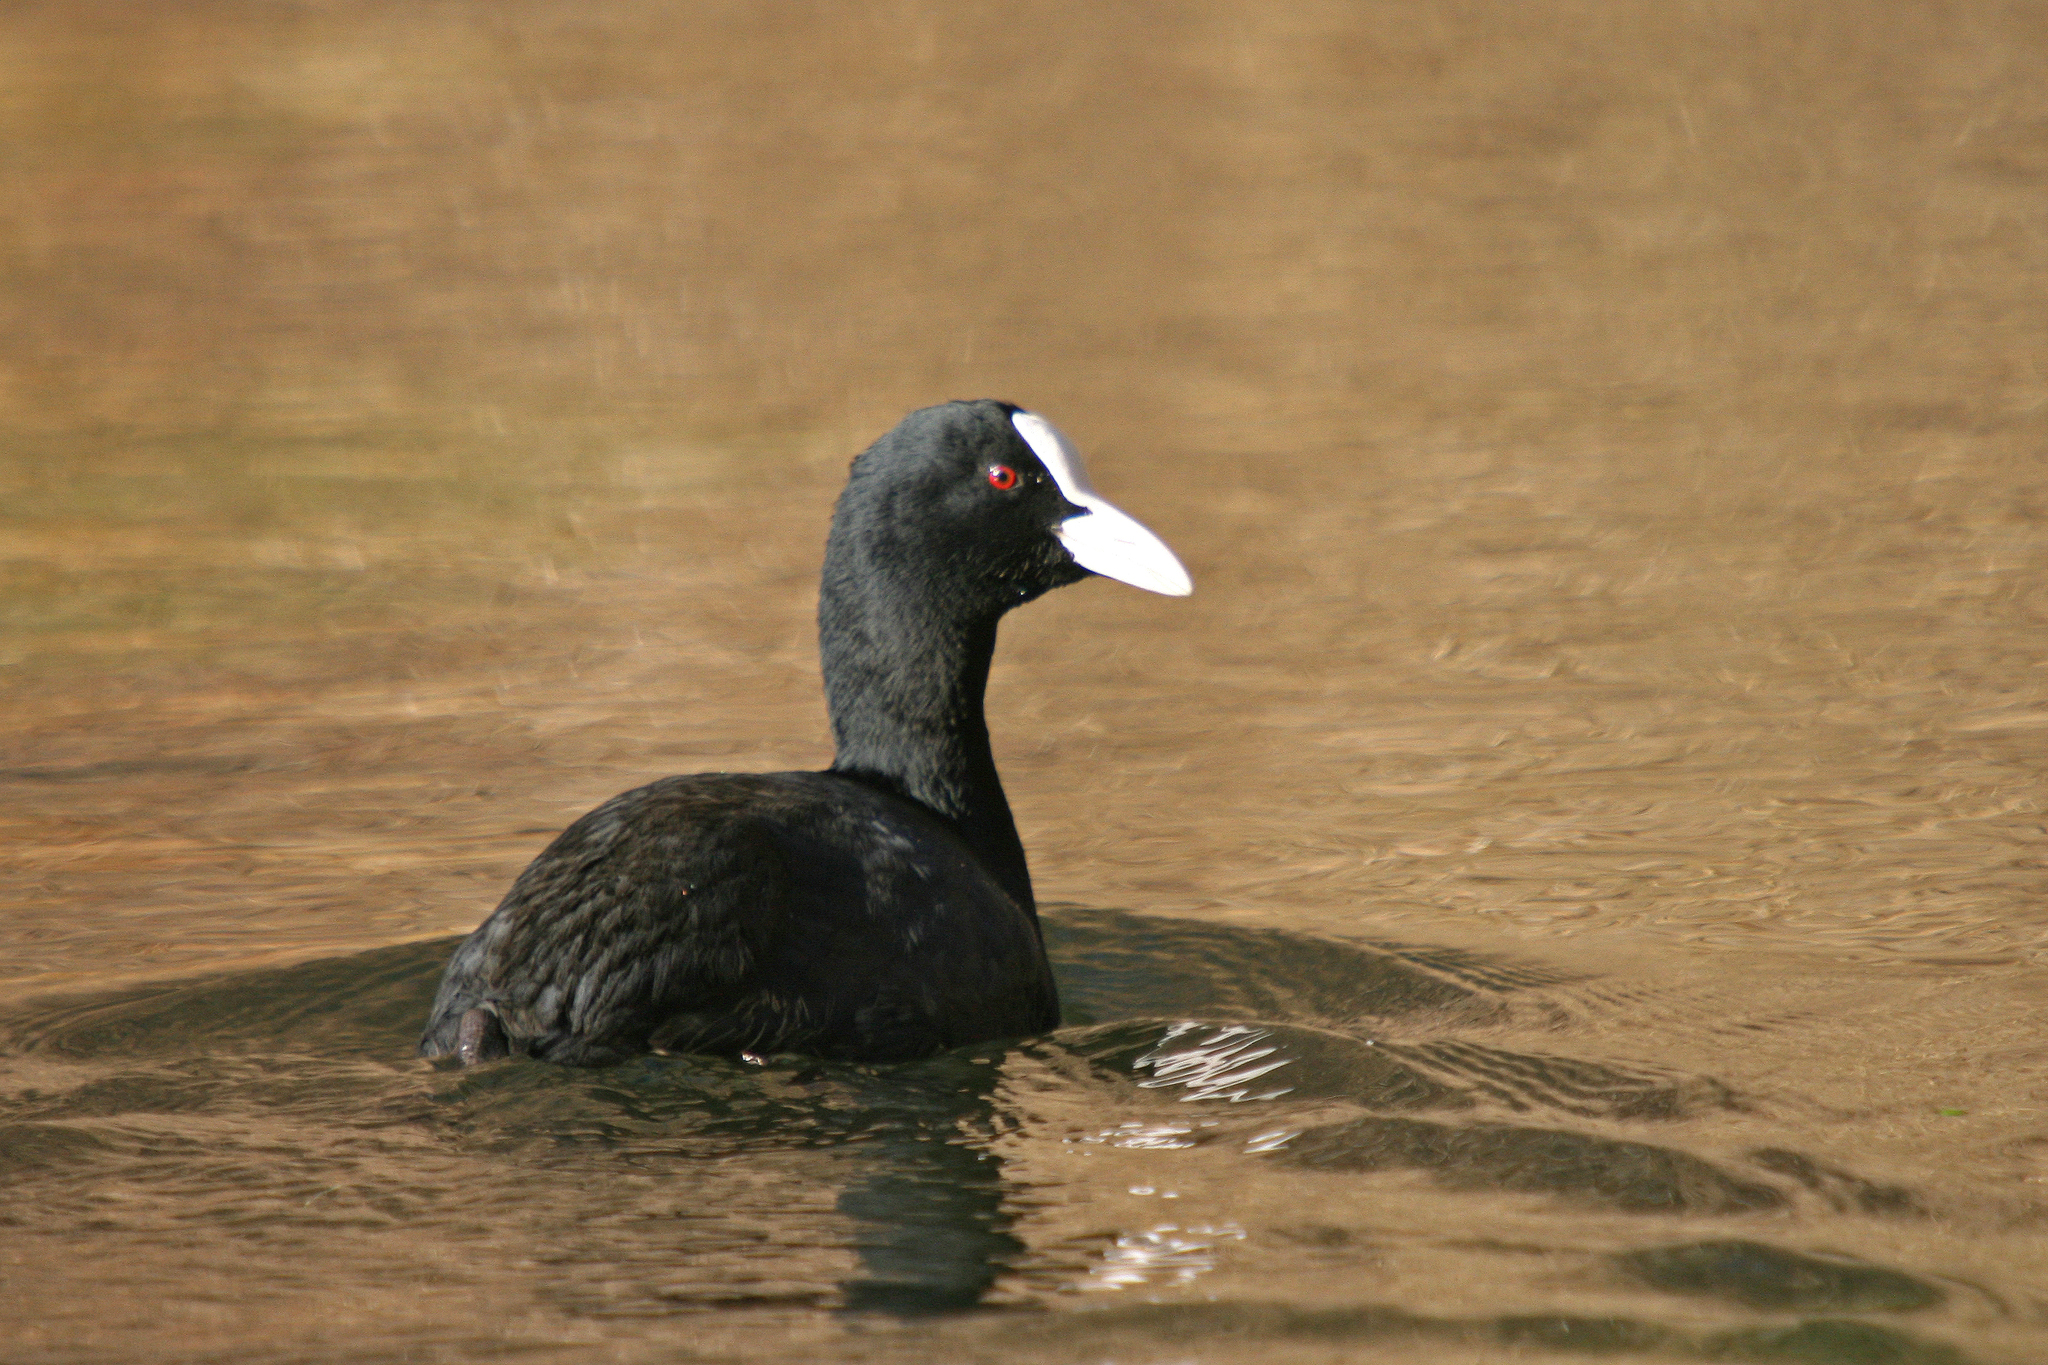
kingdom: Animalia
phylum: Chordata
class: Aves
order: Gruiformes
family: Rallidae
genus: Fulica
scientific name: Fulica atra
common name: Eurasian coot
